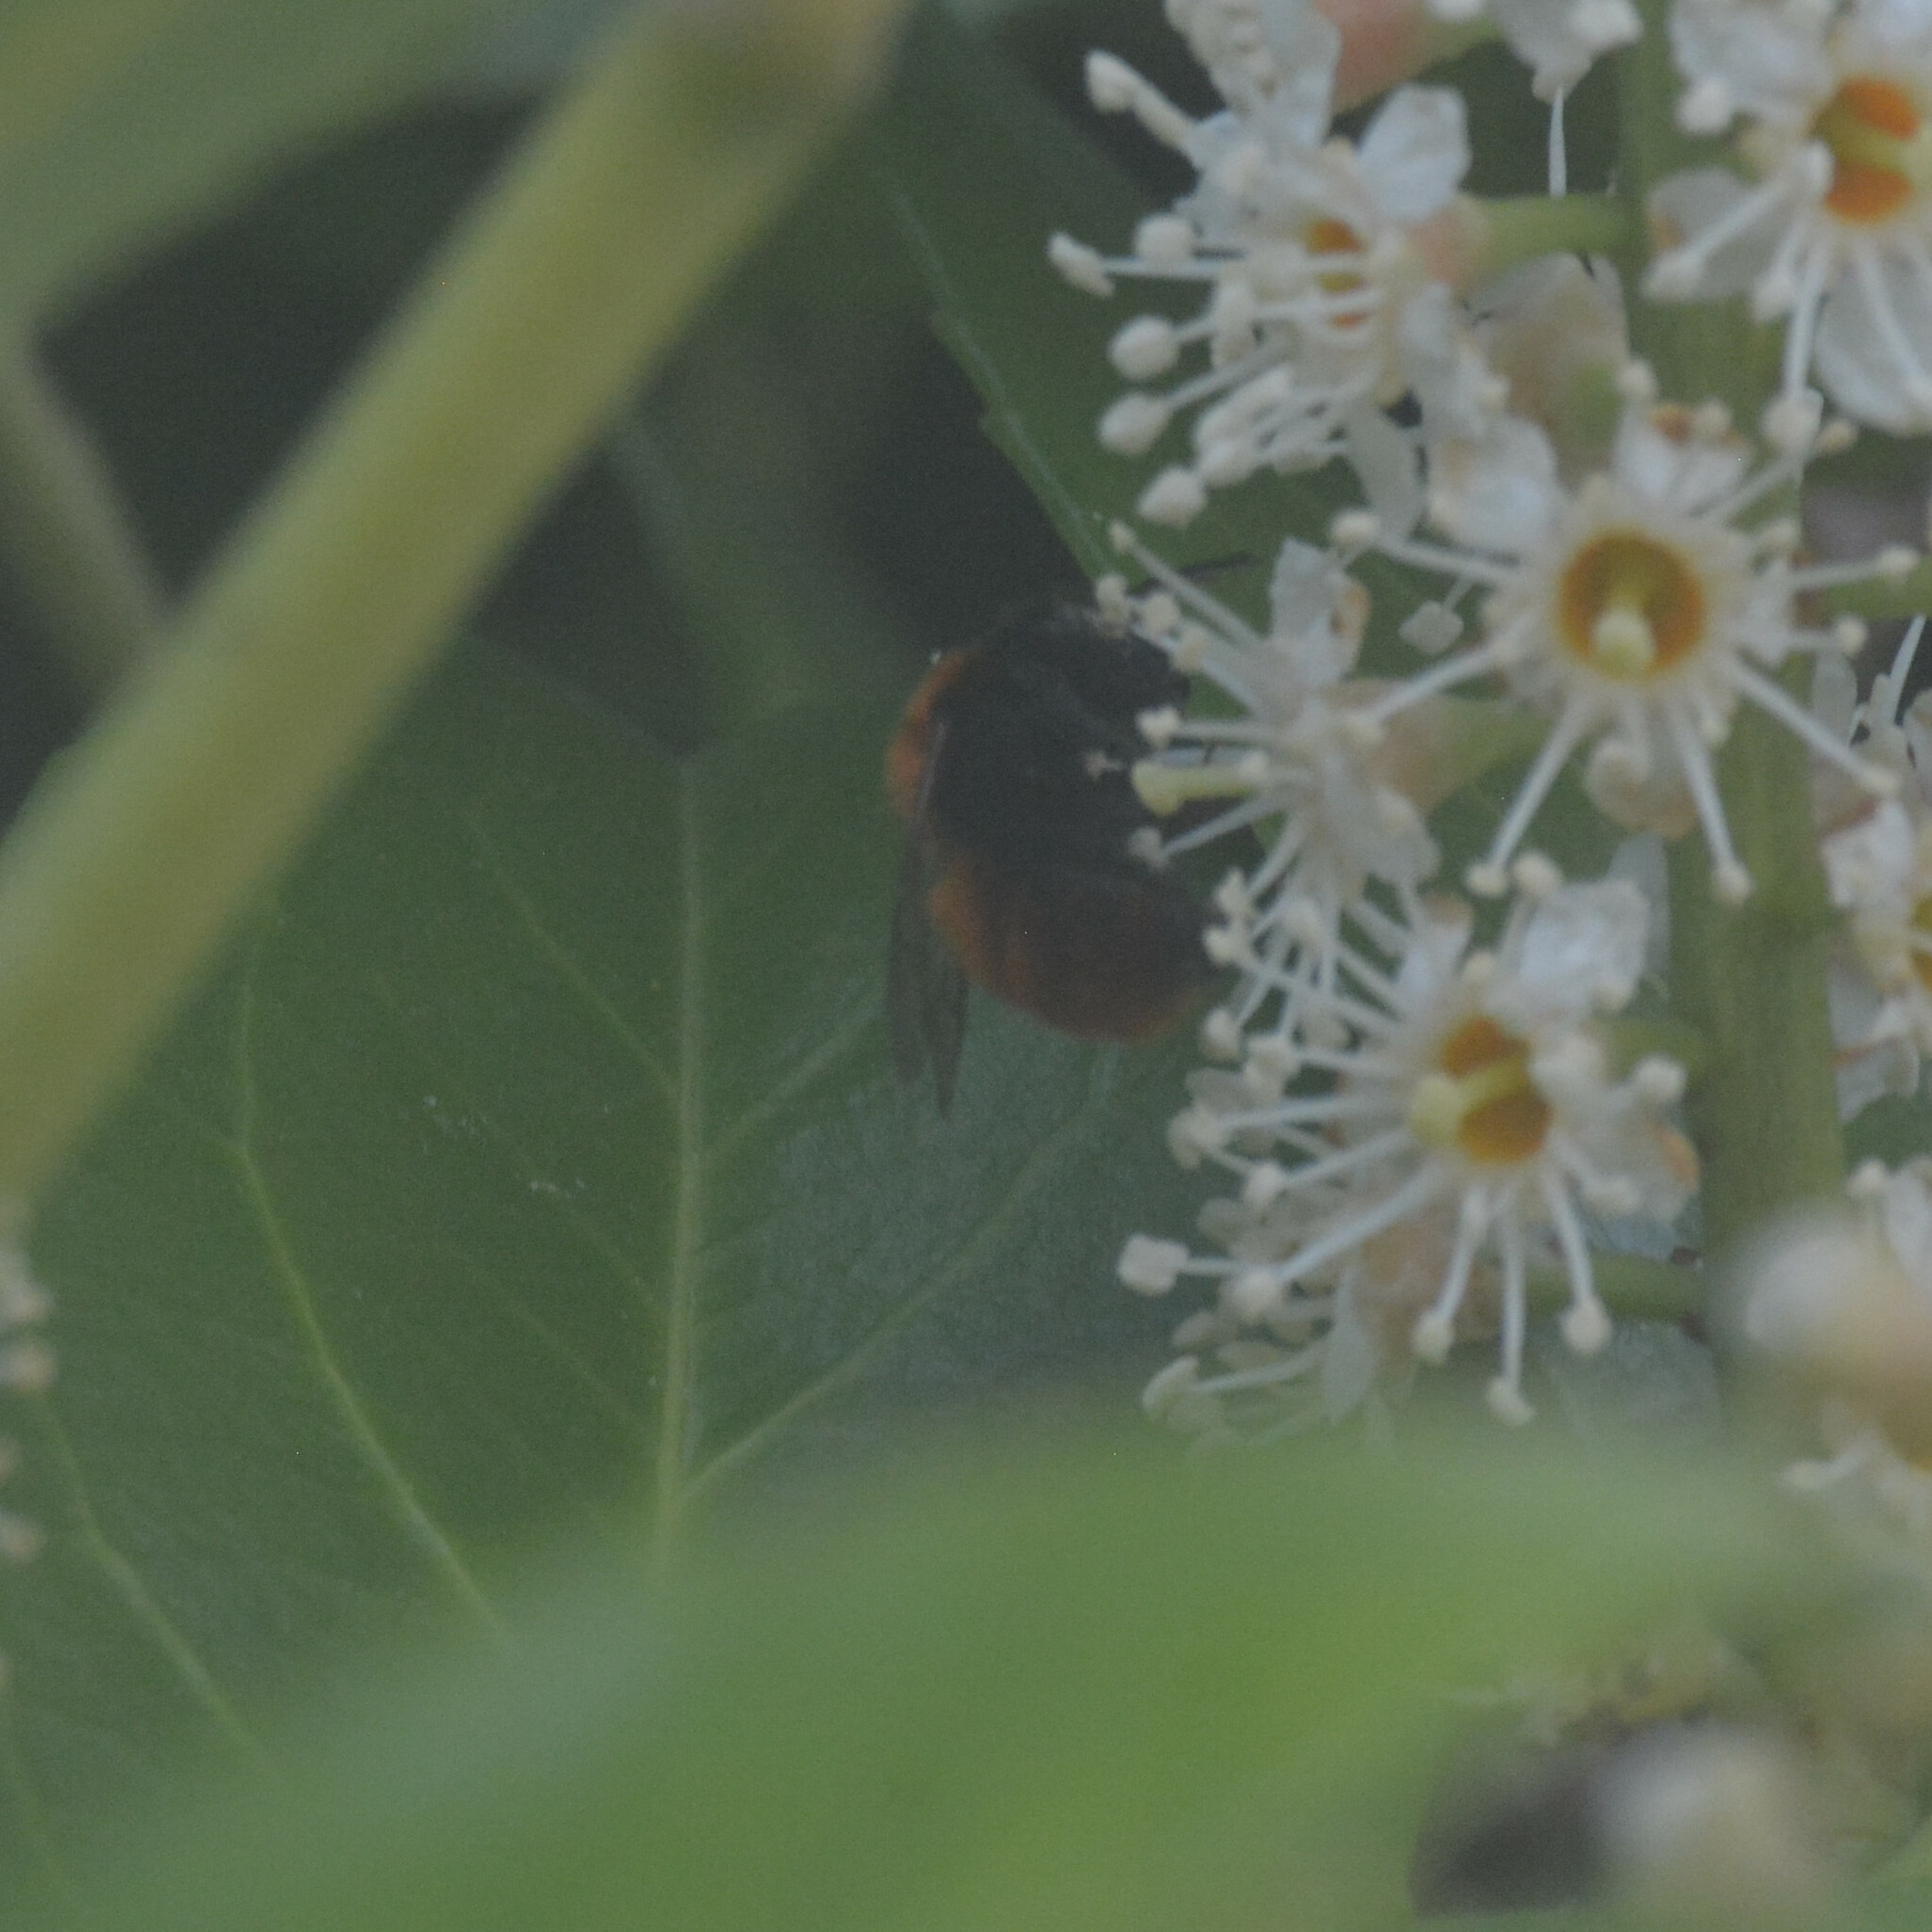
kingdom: Animalia
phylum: Arthropoda
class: Insecta
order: Hymenoptera
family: Andrenidae
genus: Andrena
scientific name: Andrena fulva
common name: Tawny mining bee
